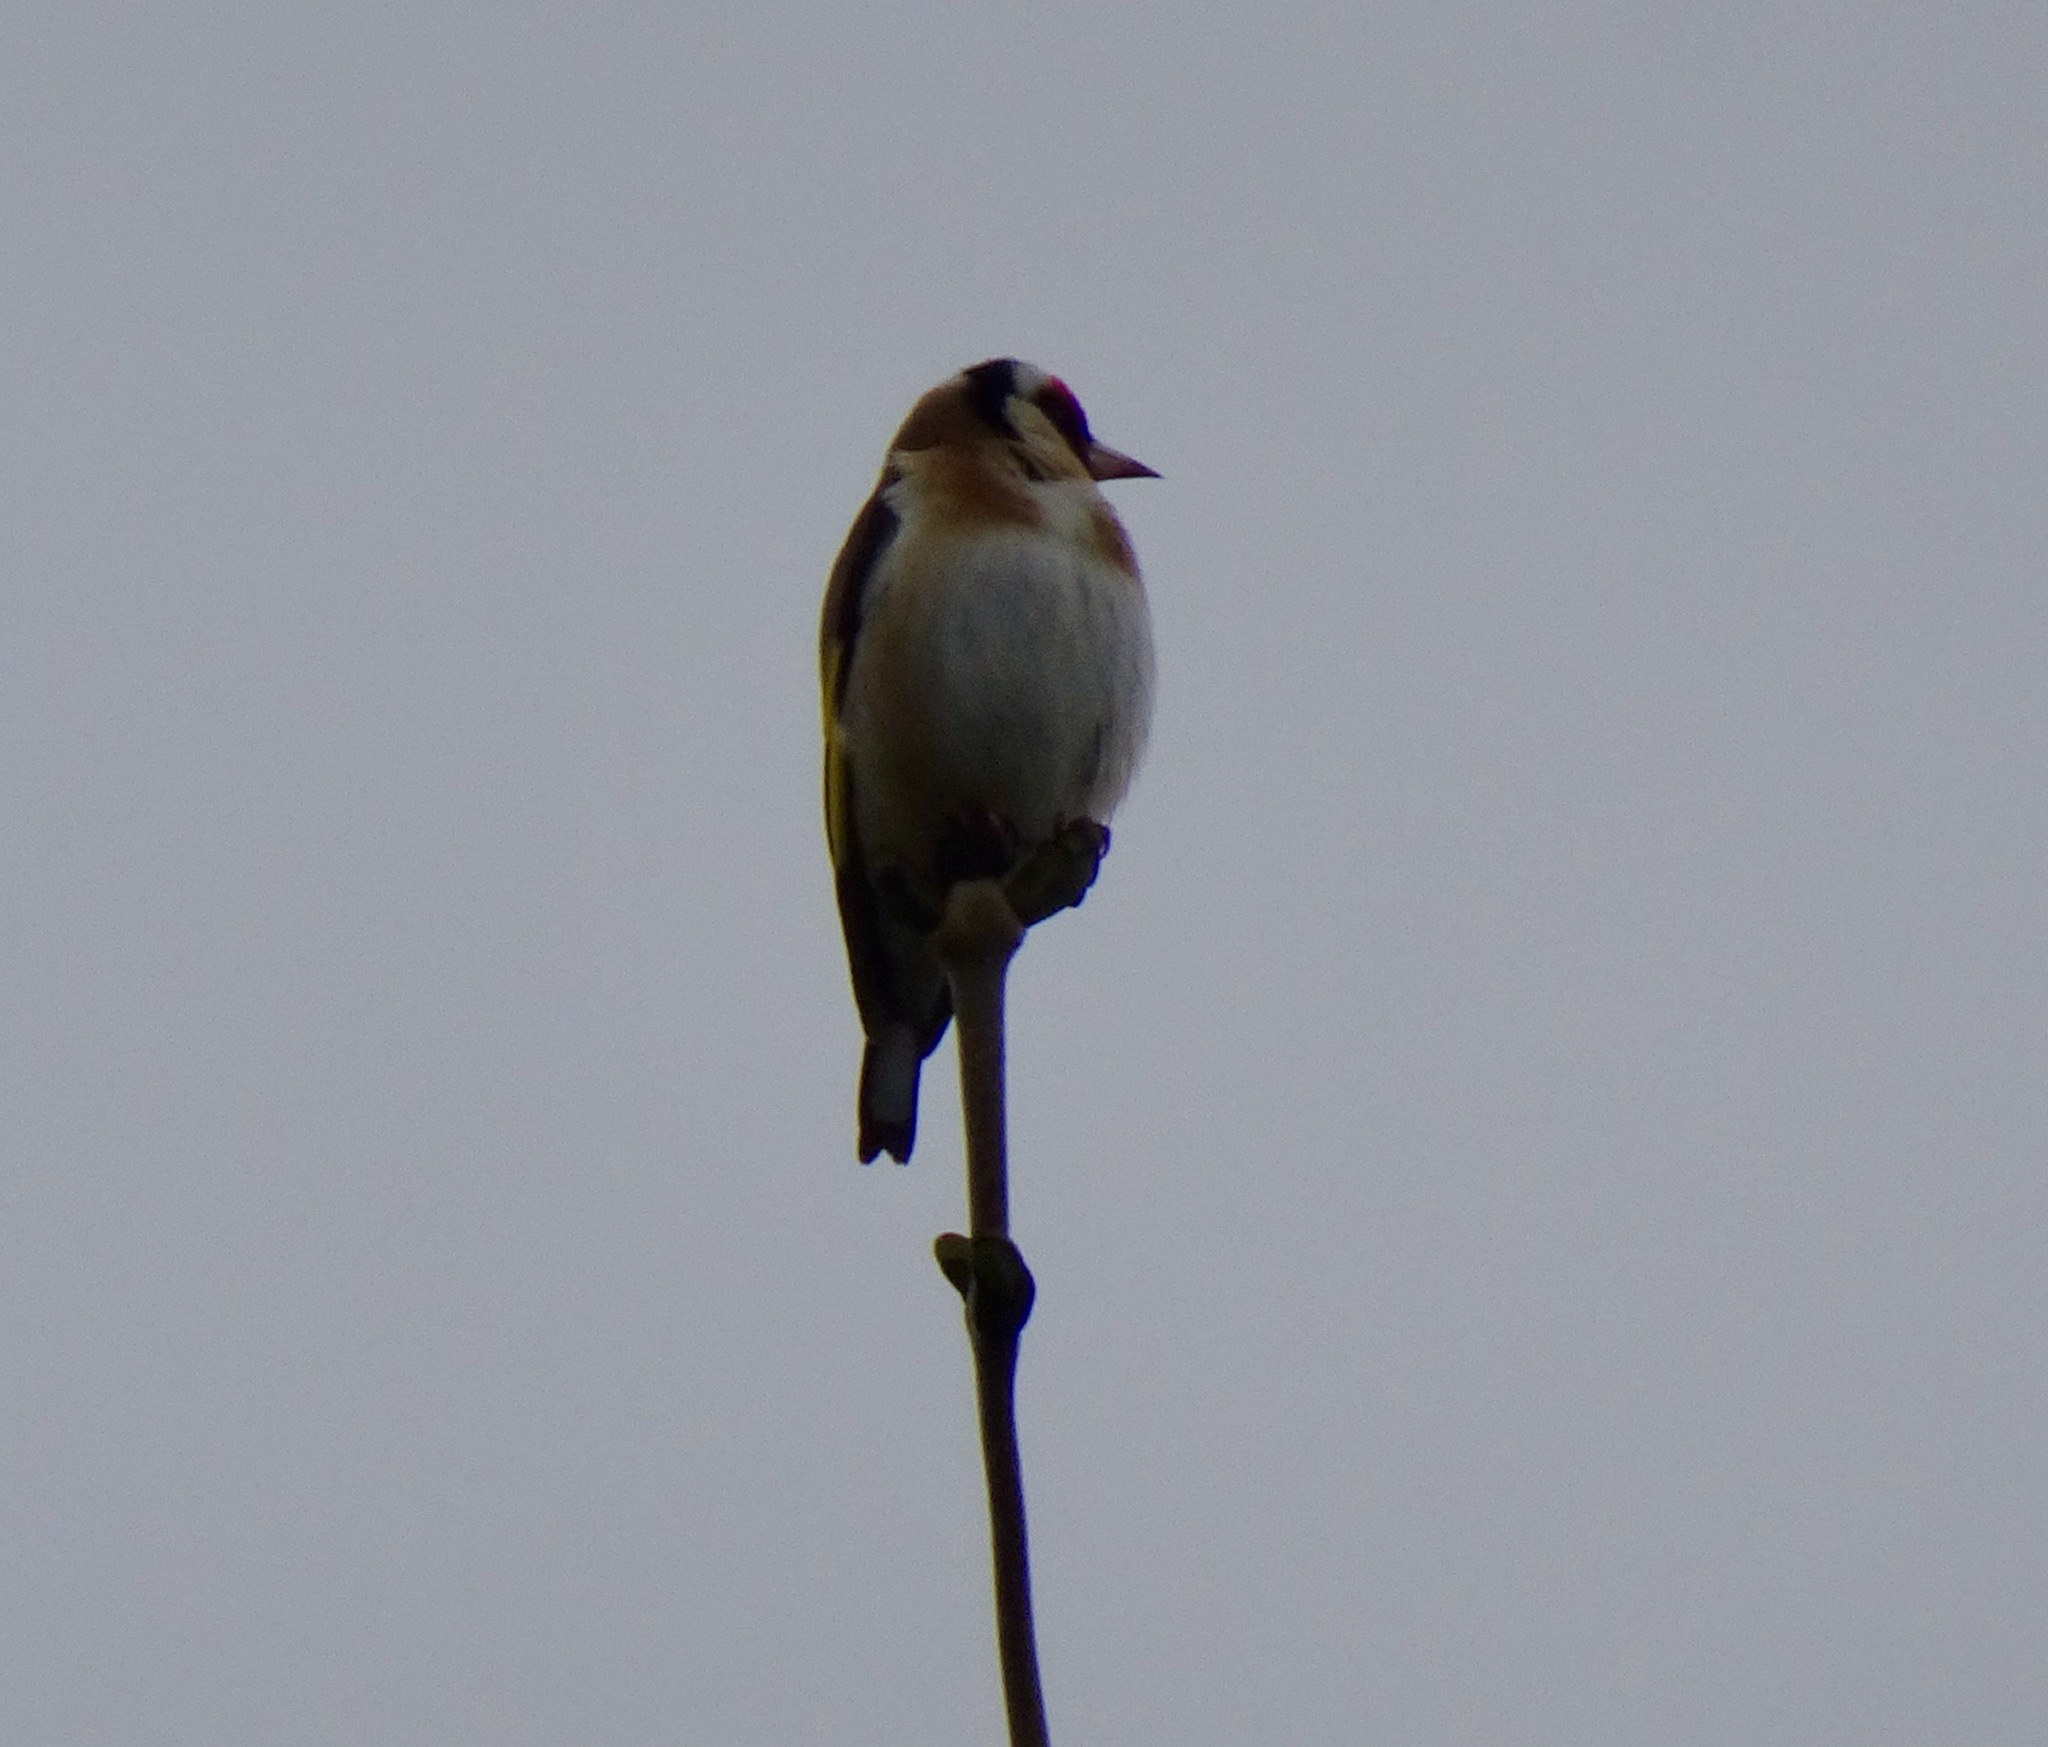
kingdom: Animalia
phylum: Chordata
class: Aves
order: Passeriformes
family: Fringillidae
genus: Carduelis
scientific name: Carduelis carduelis
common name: European goldfinch
